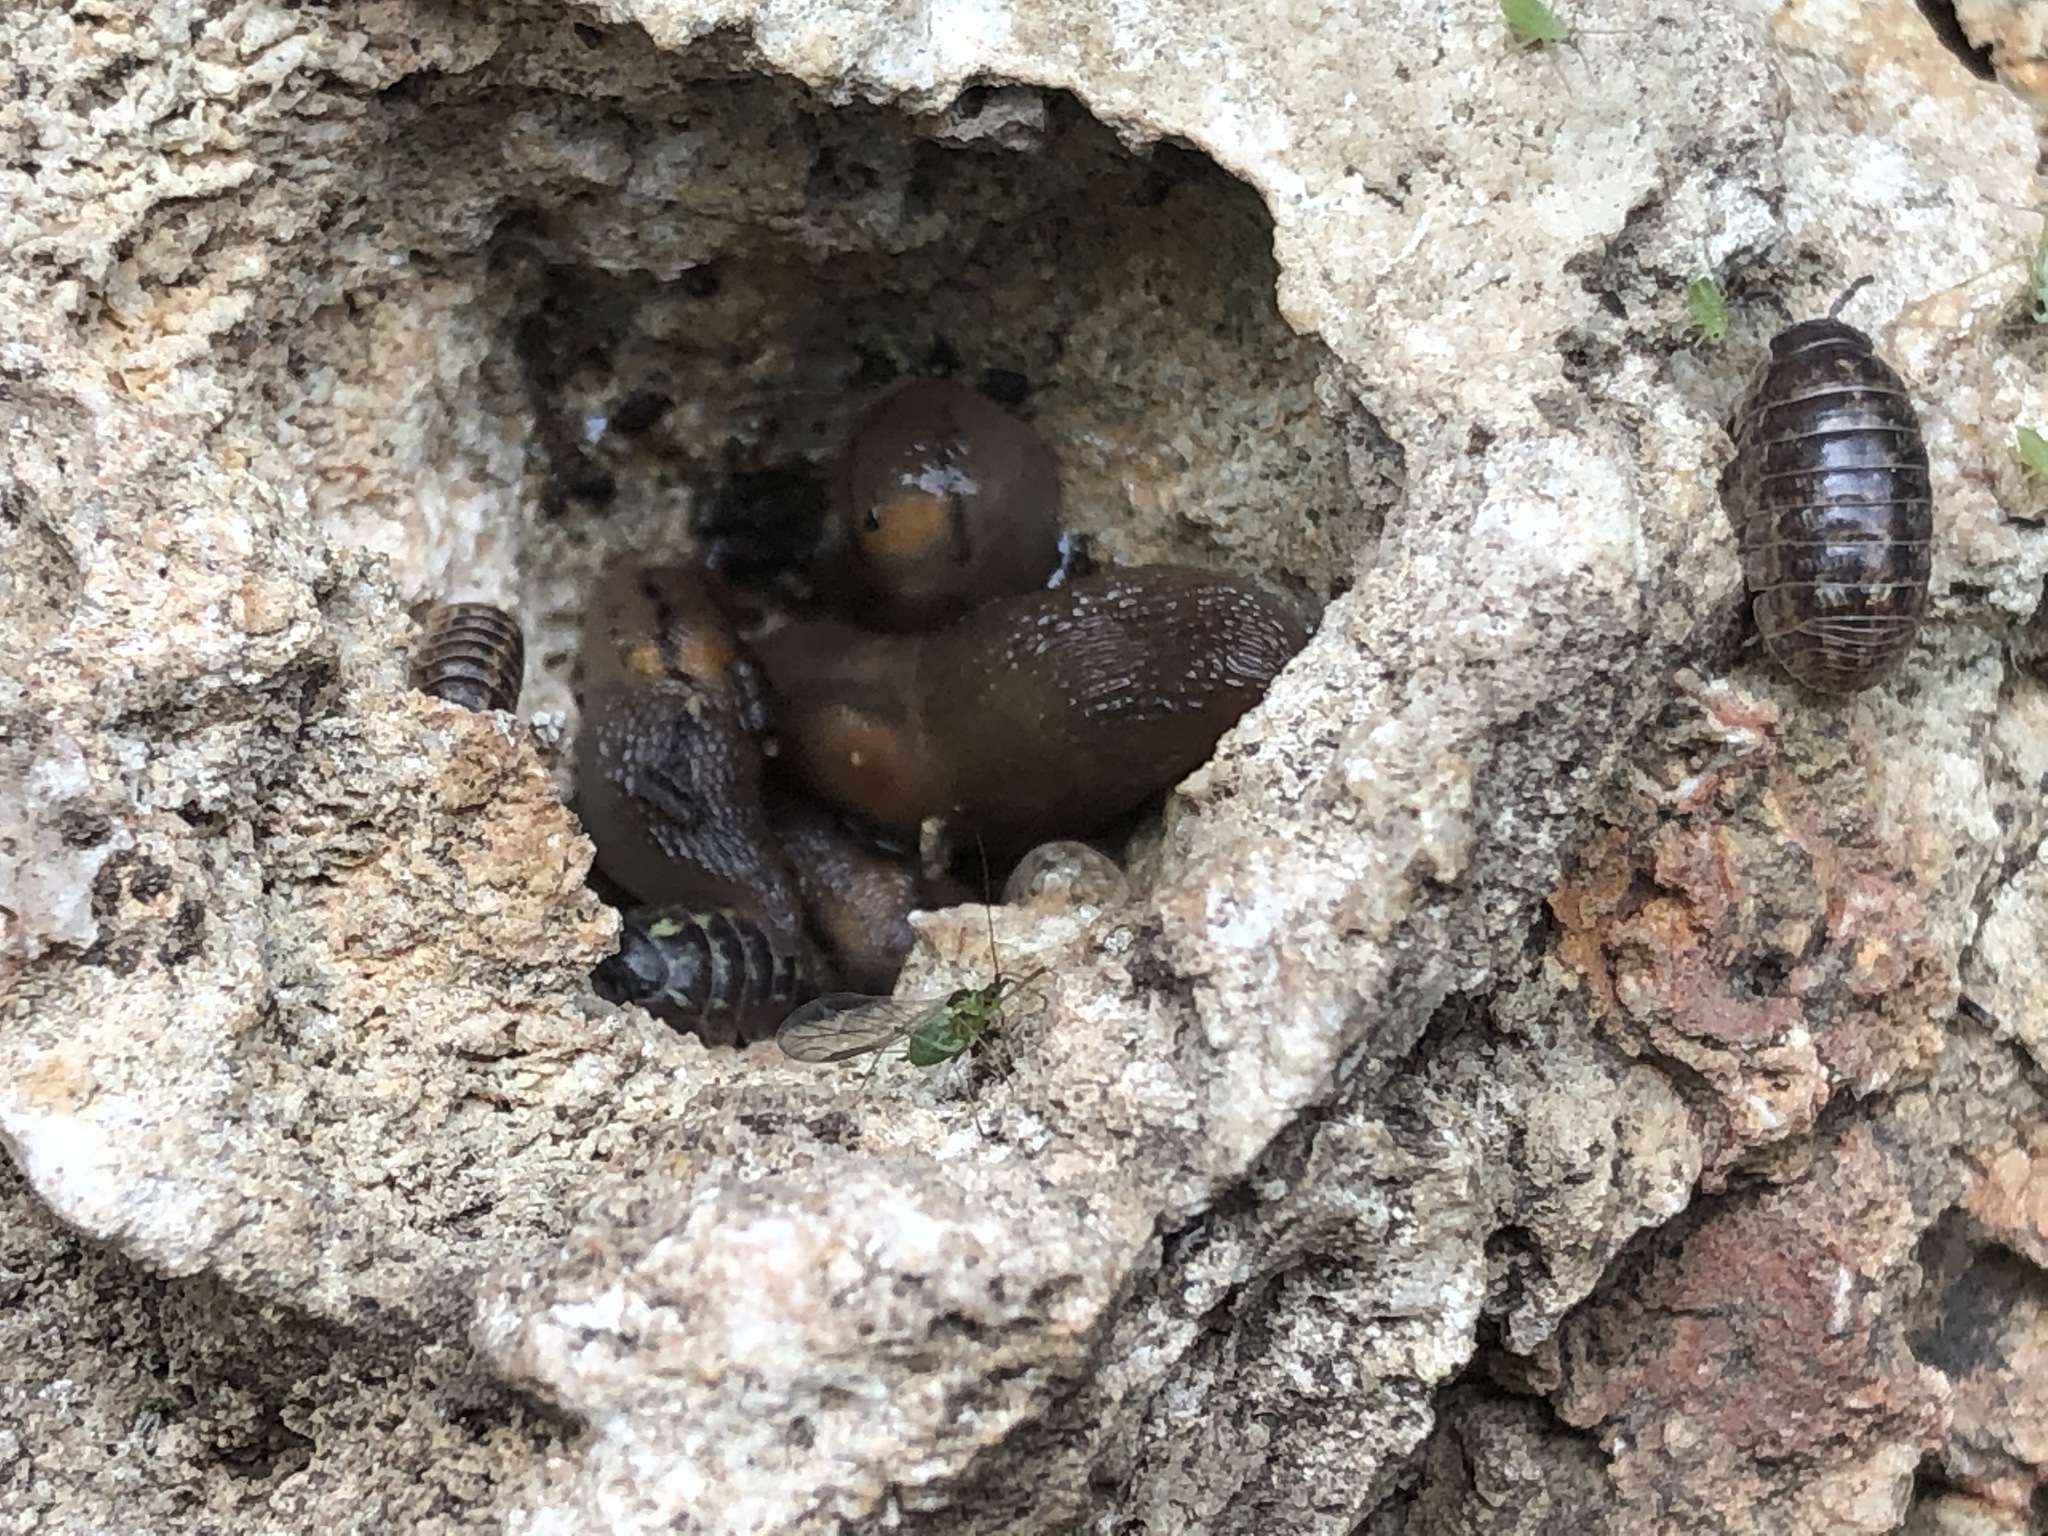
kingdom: Animalia
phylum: Arthropoda
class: Malacostraca
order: Isopoda
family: Armadillidiidae
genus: Armadillidium
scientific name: Armadillidium vulgare
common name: Common pill woodlouse
